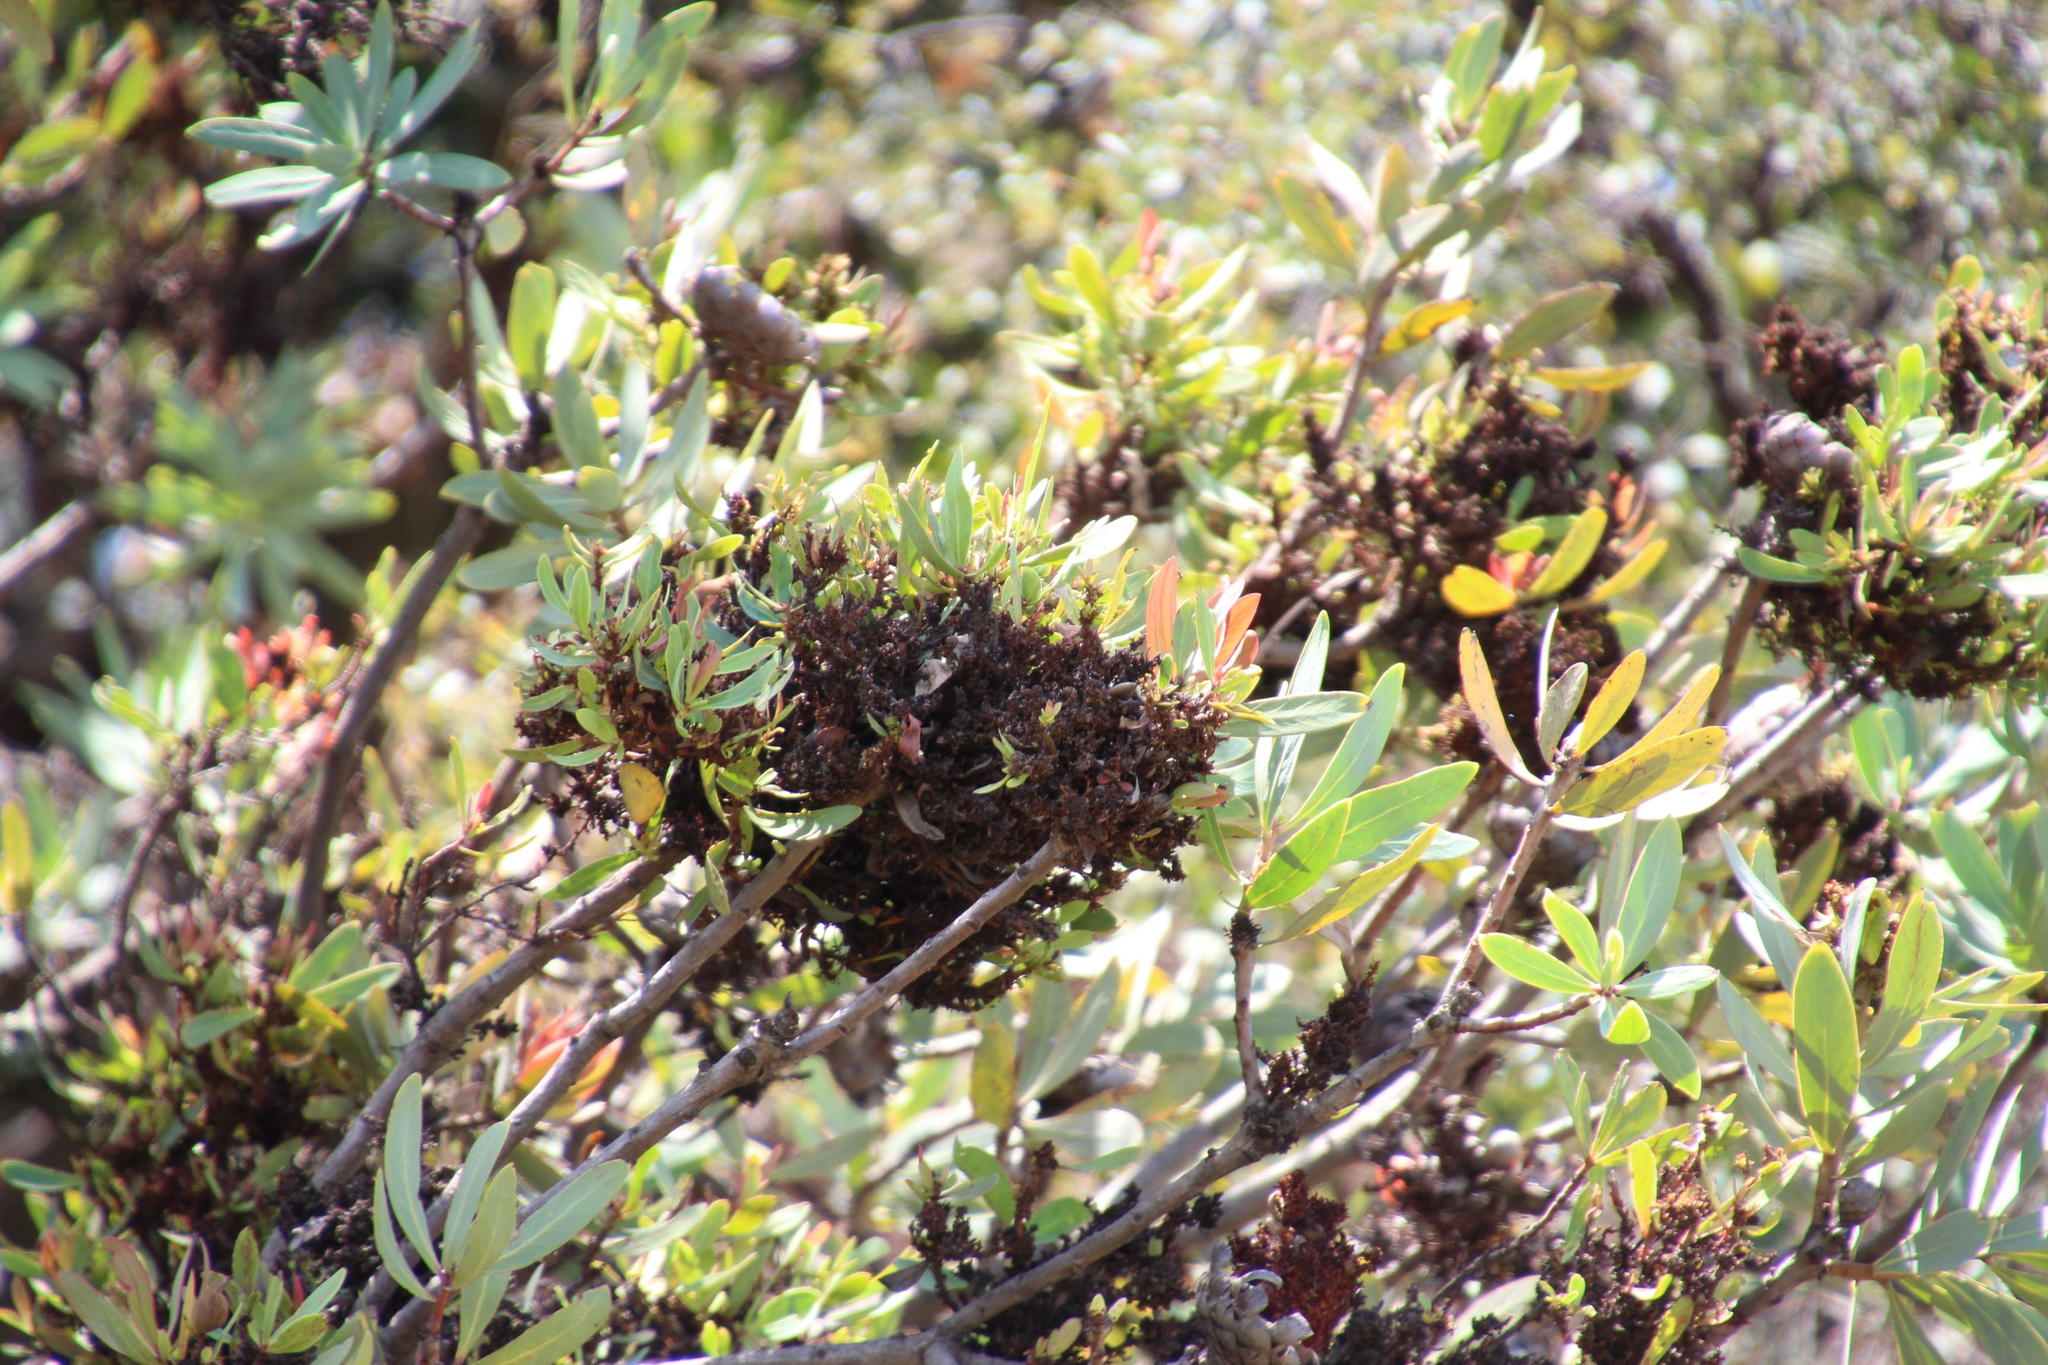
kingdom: Bacteria
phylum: Firmicutes
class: Bacilli
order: Acholeplasmatales
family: Acholeplasmataceae
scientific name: Acholeplasmataceae
